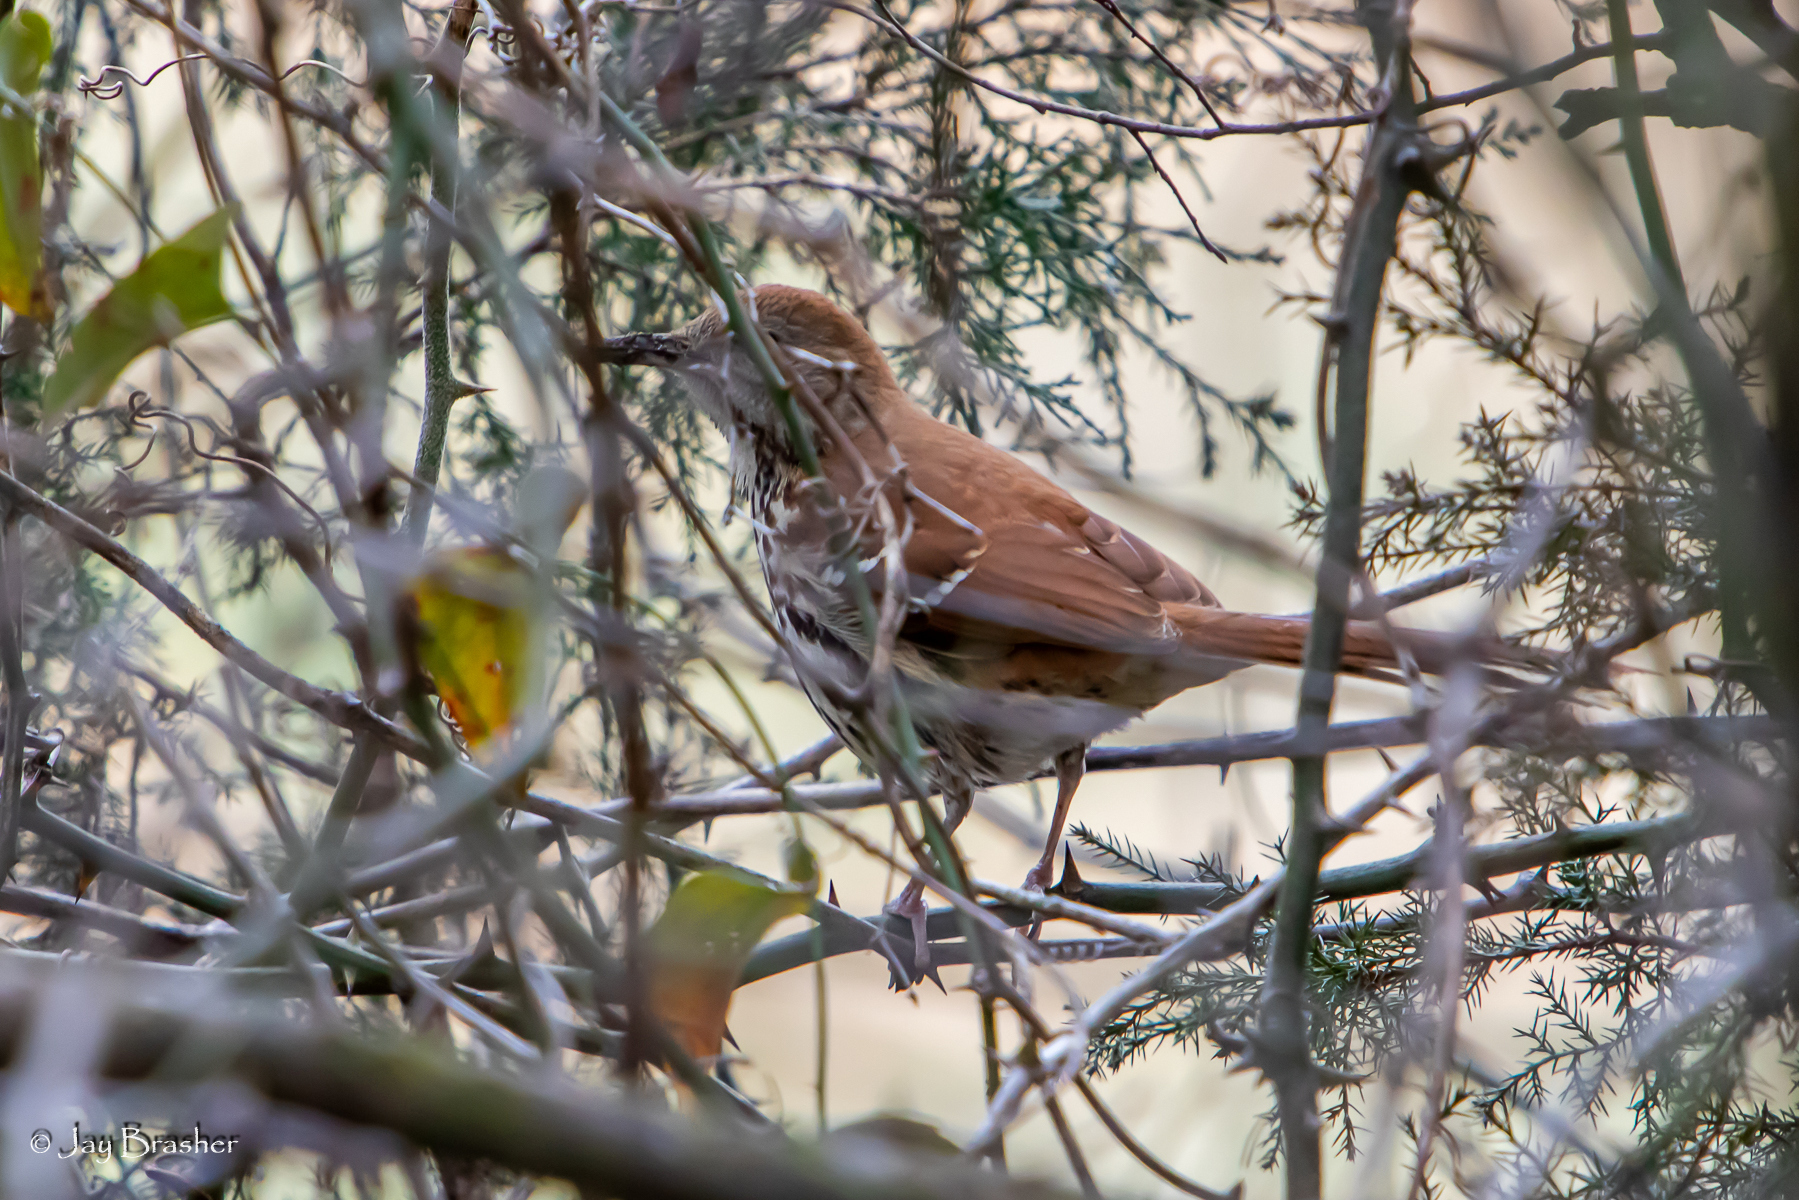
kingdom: Animalia
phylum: Chordata
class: Aves
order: Passeriformes
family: Mimidae
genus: Toxostoma
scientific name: Toxostoma rufum
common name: Brown thrasher
